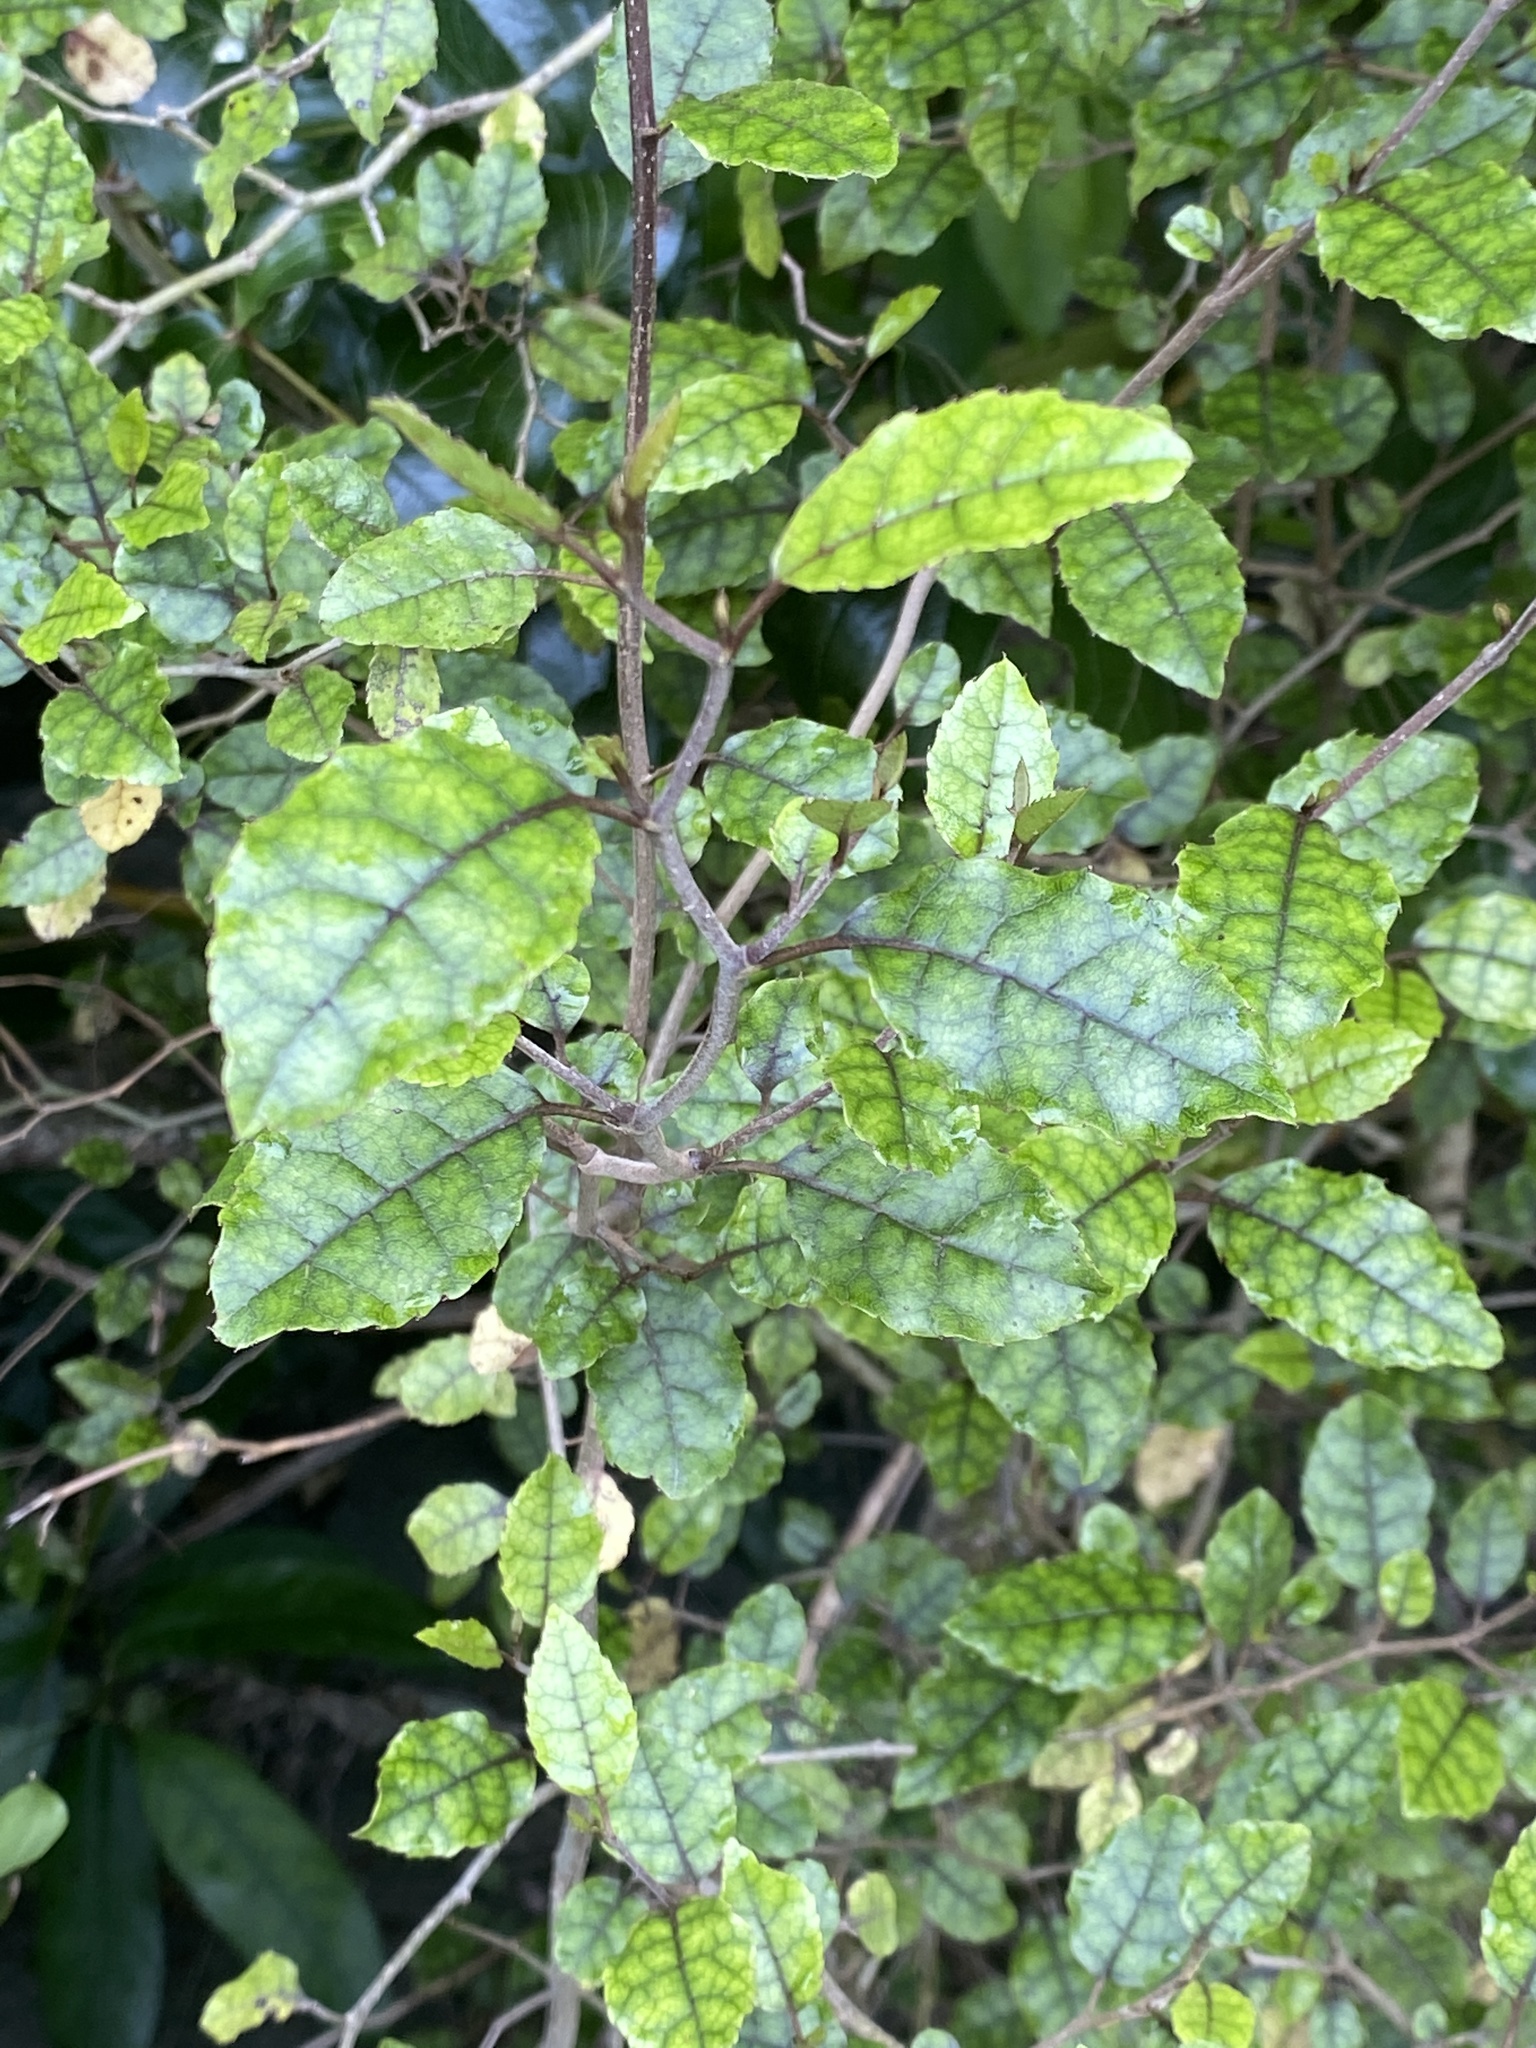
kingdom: Plantae
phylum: Tracheophyta
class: Magnoliopsida
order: Asterales
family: Rousseaceae
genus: Carpodetus
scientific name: Carpodetus serratus
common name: White mapau
